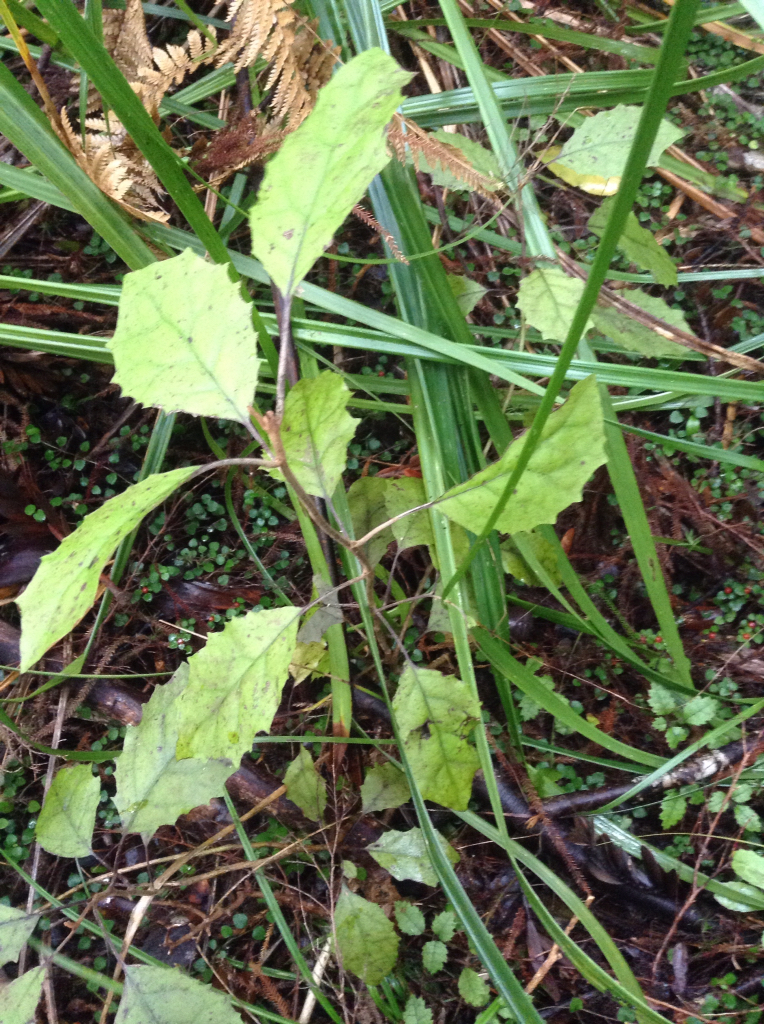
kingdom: Plantae
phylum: Tracheophyta
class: Magnoliopsida
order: Asterales
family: Asteraceae
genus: Olearia
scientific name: Olearia rani
